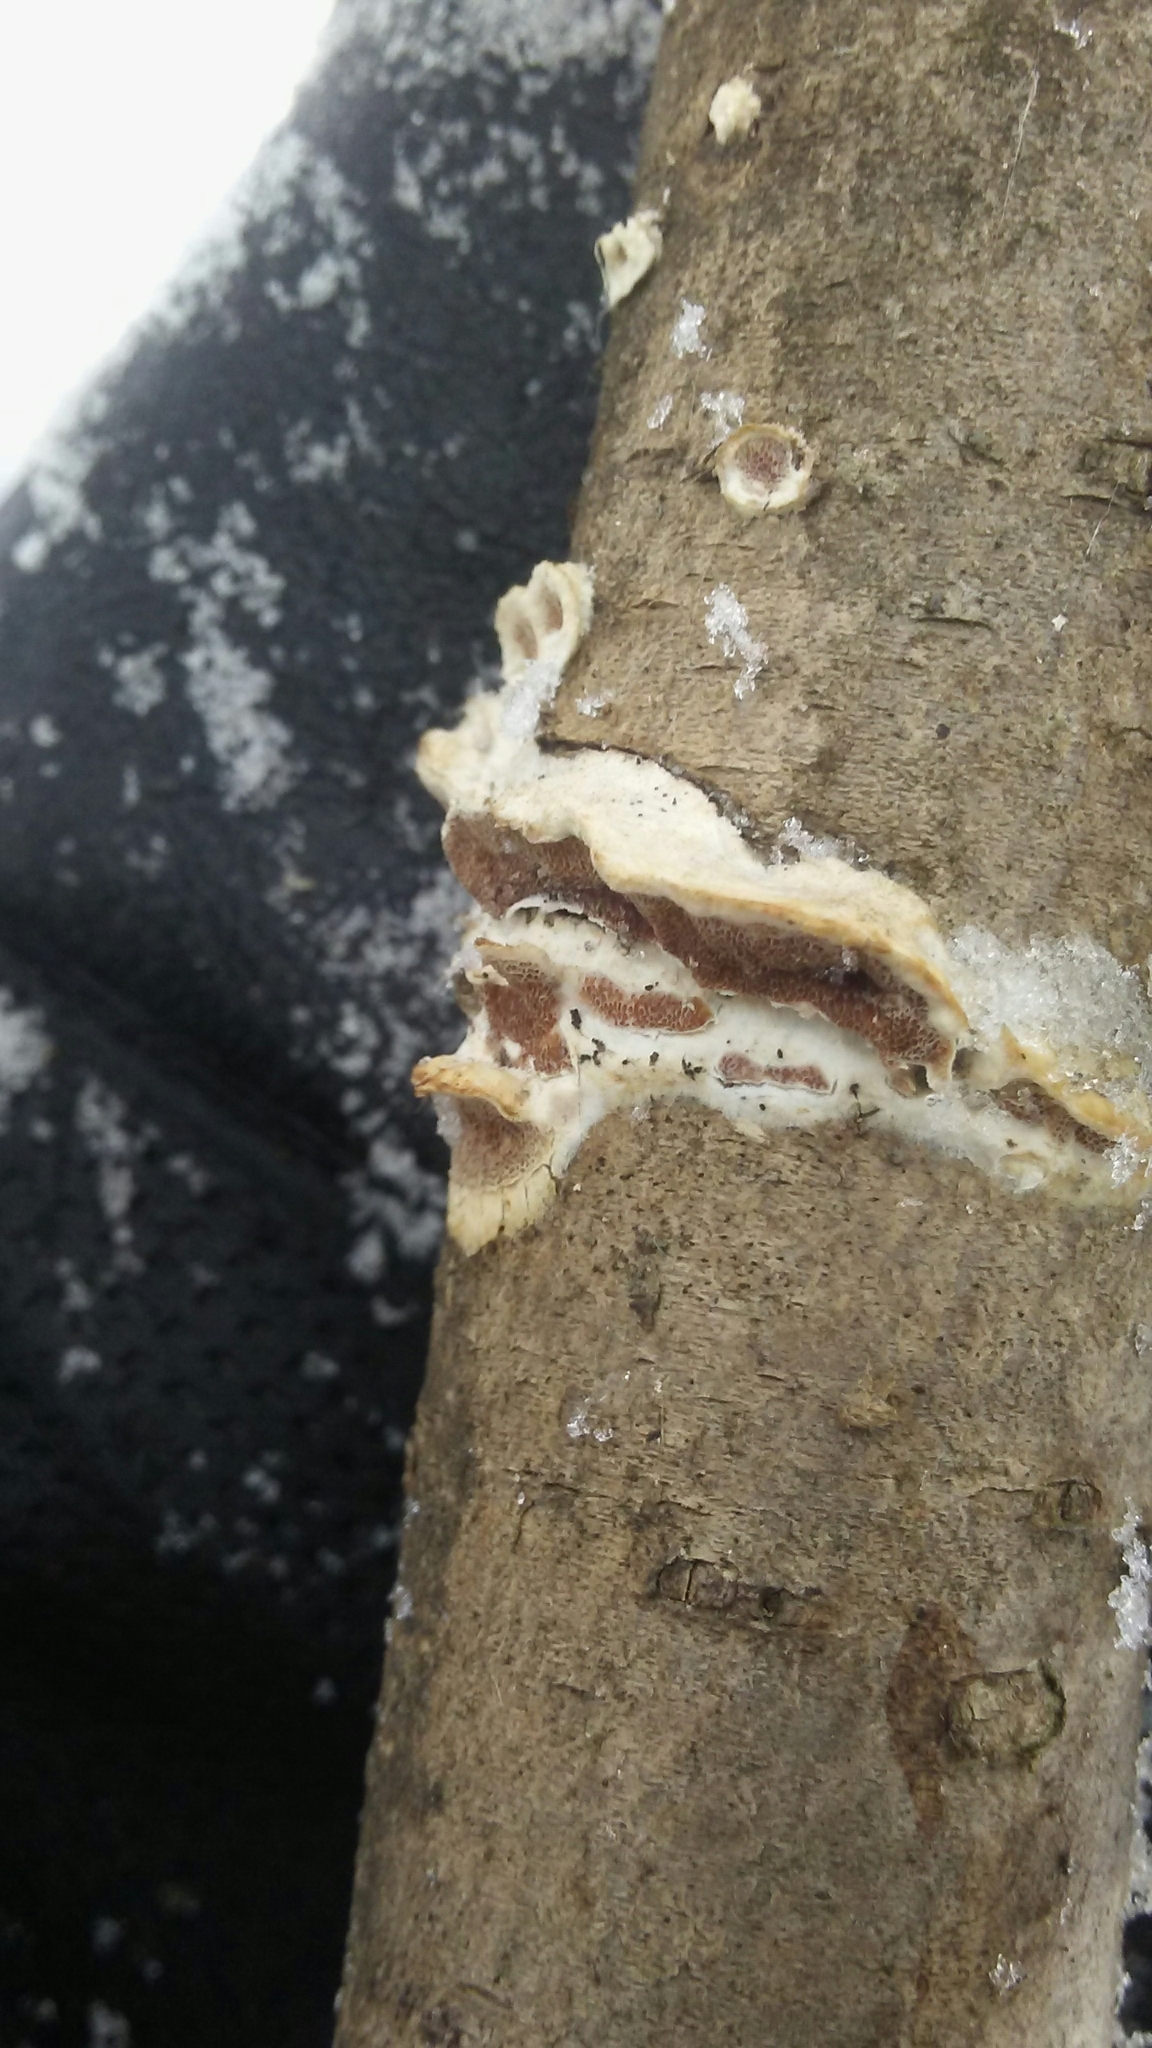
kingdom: Fungi
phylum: Basidiomycota
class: Agaricomycetes
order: Polyporales
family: Irpicaceae
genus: Vitreoporus
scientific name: Vitreoporus dichrous
